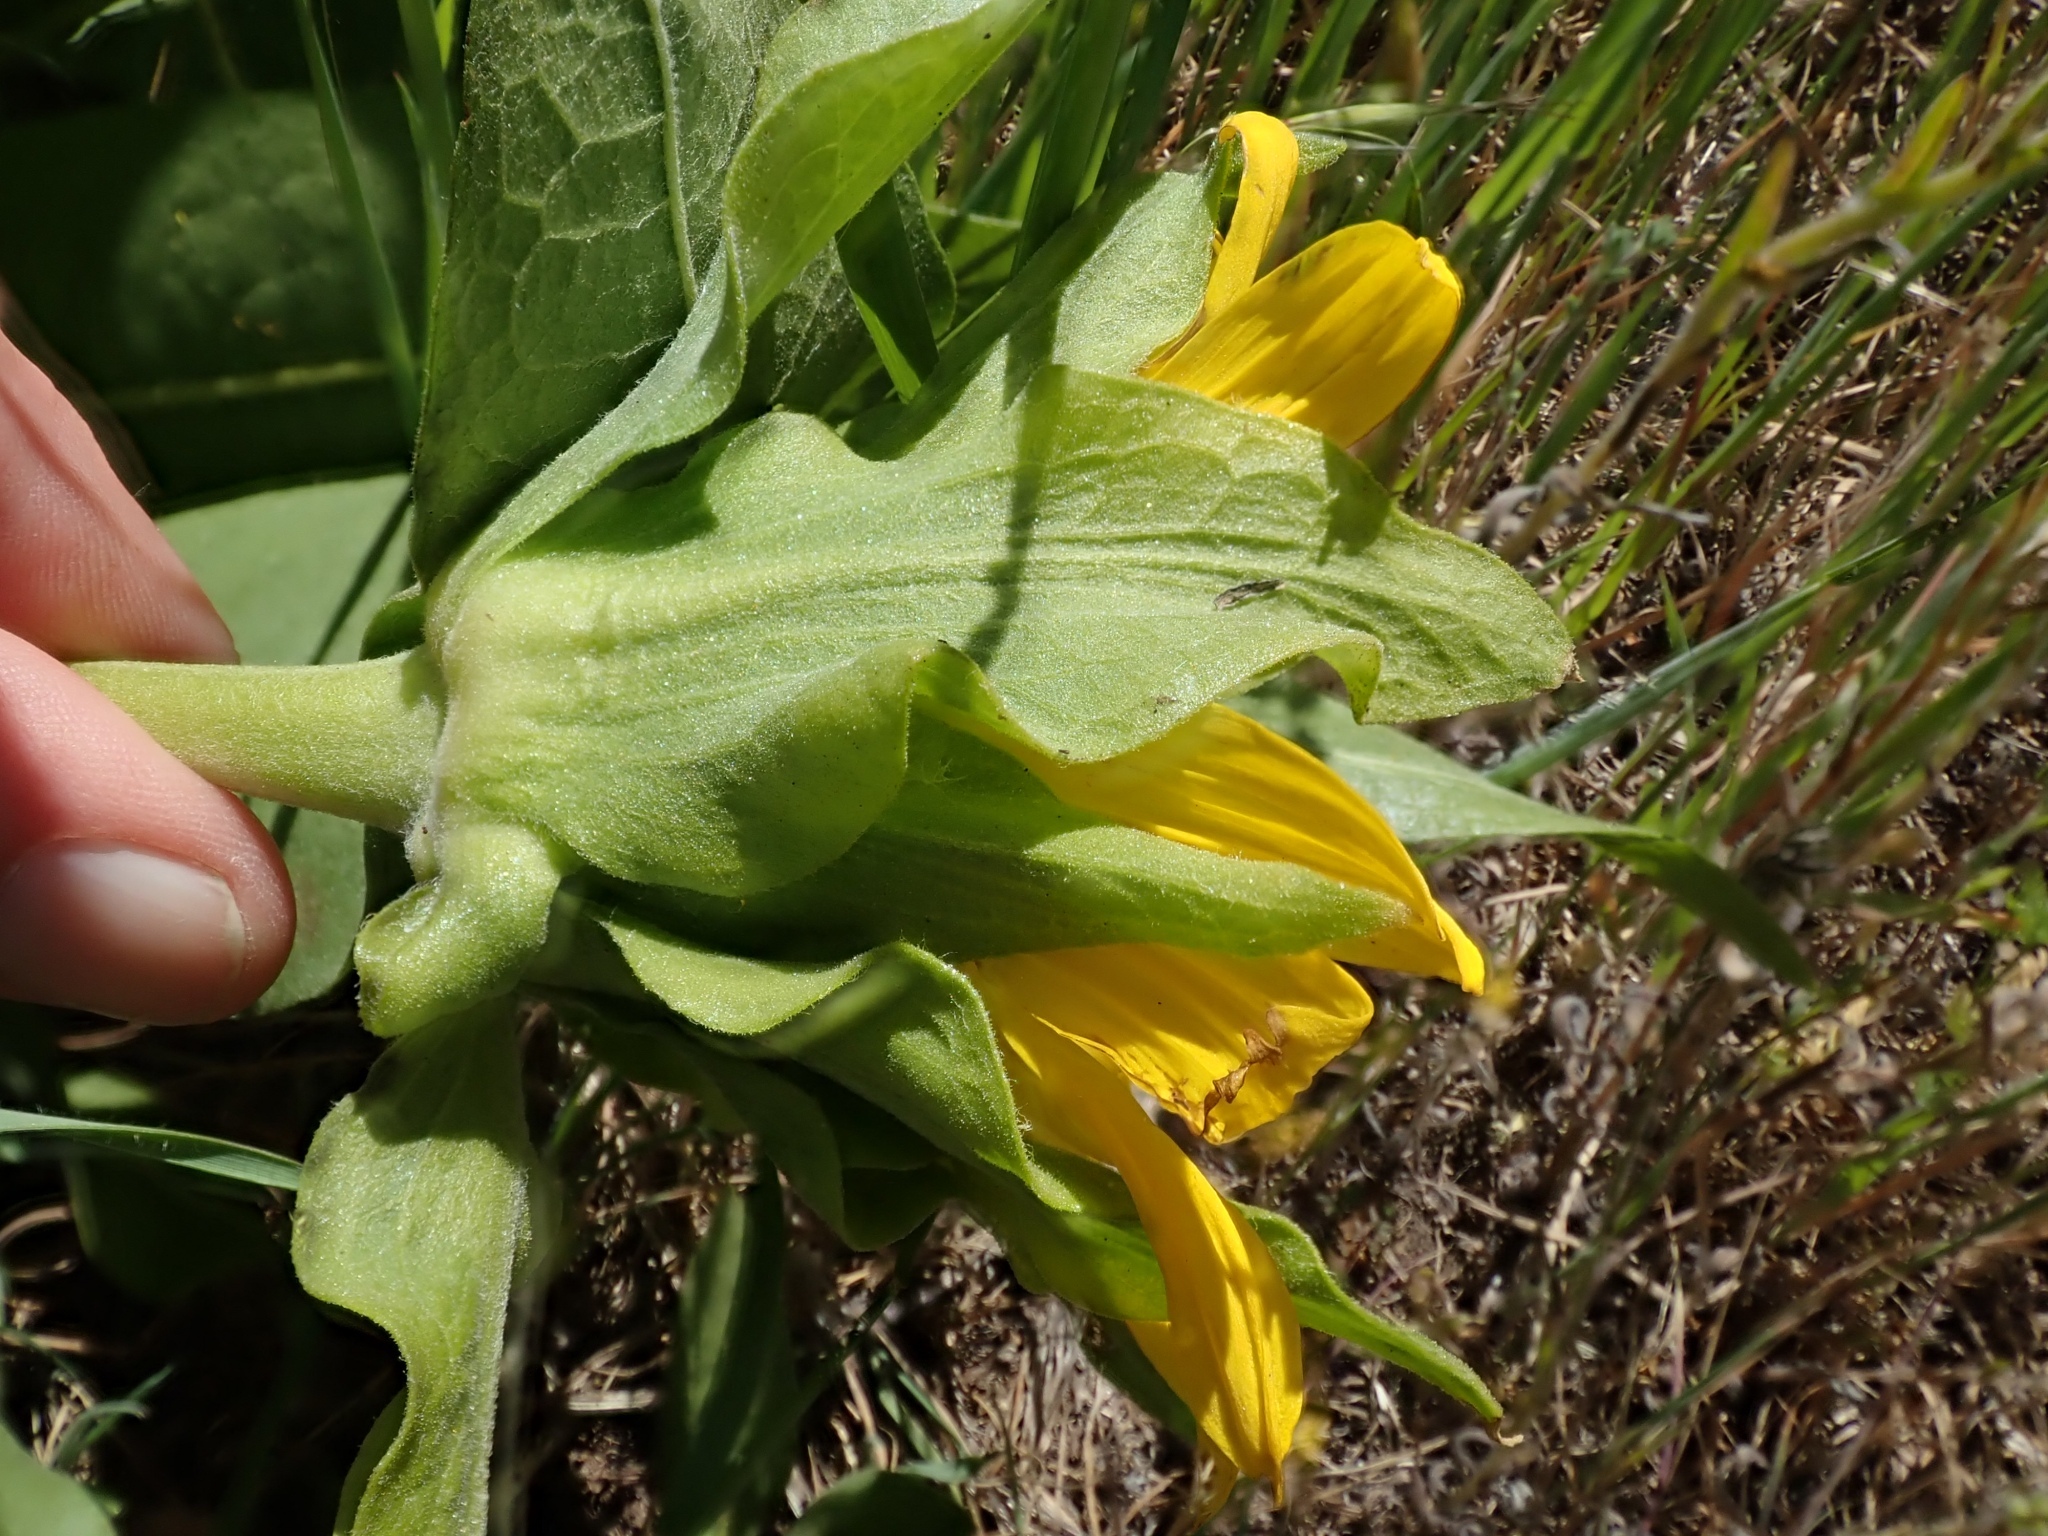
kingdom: Plantae
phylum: Tracheophyta
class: Magnoliopsida
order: Asterales
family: Asteraceae
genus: Wyethia
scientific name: Wyethia glabra
